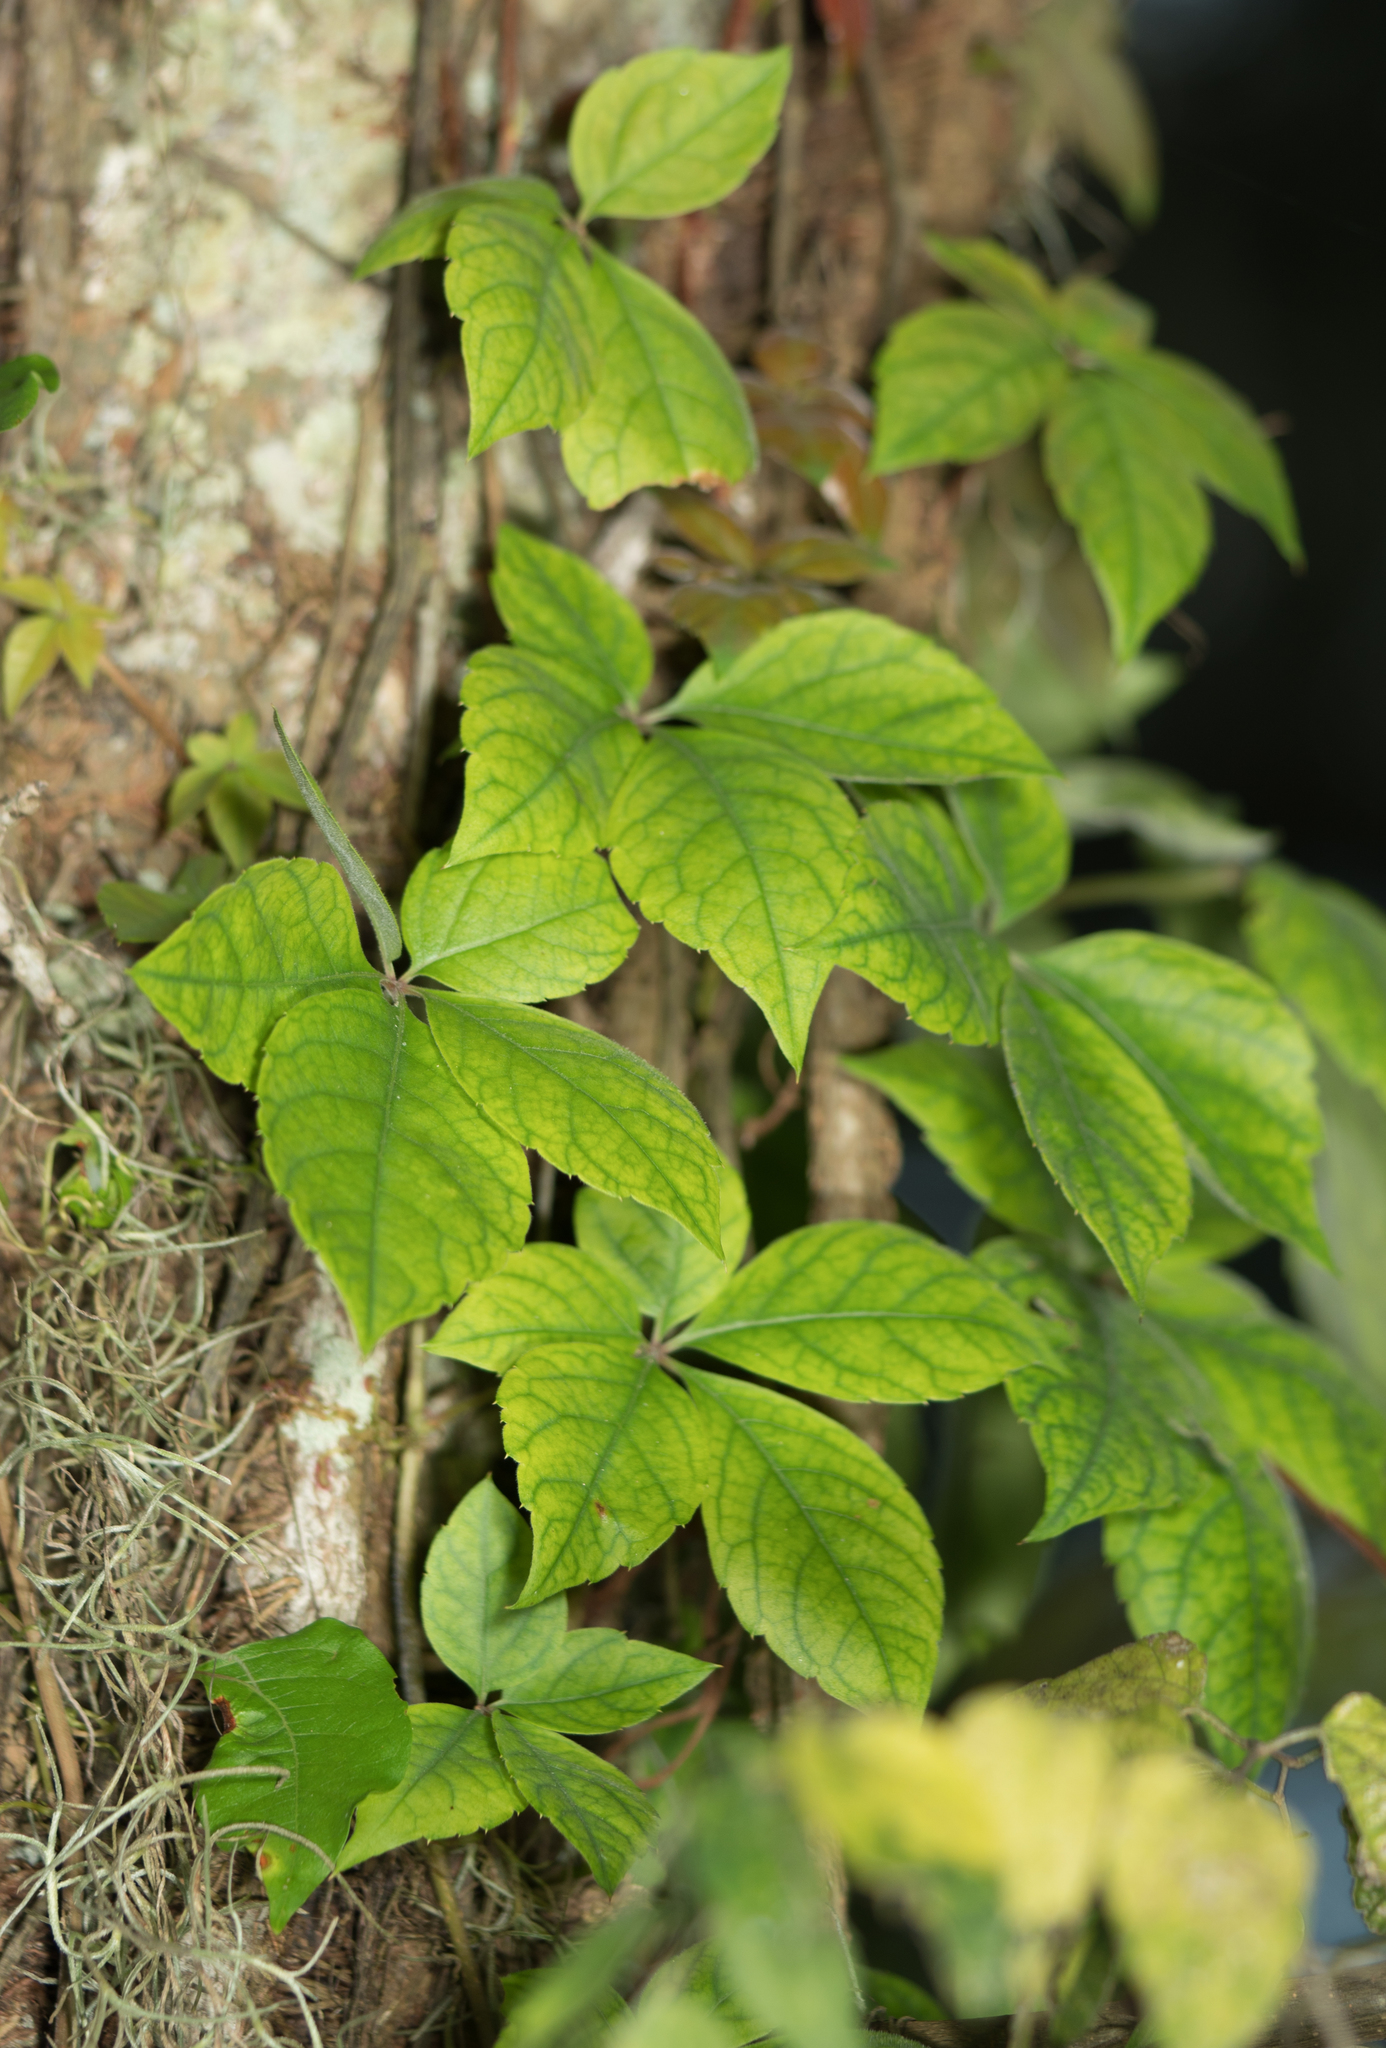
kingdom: Plantae
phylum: Tracheophyta
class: Magnoliopsida
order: Vitales
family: Vitaceae
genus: Parthenocissus
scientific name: Parthenocissus quinquefolia
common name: Virginia-creeper
